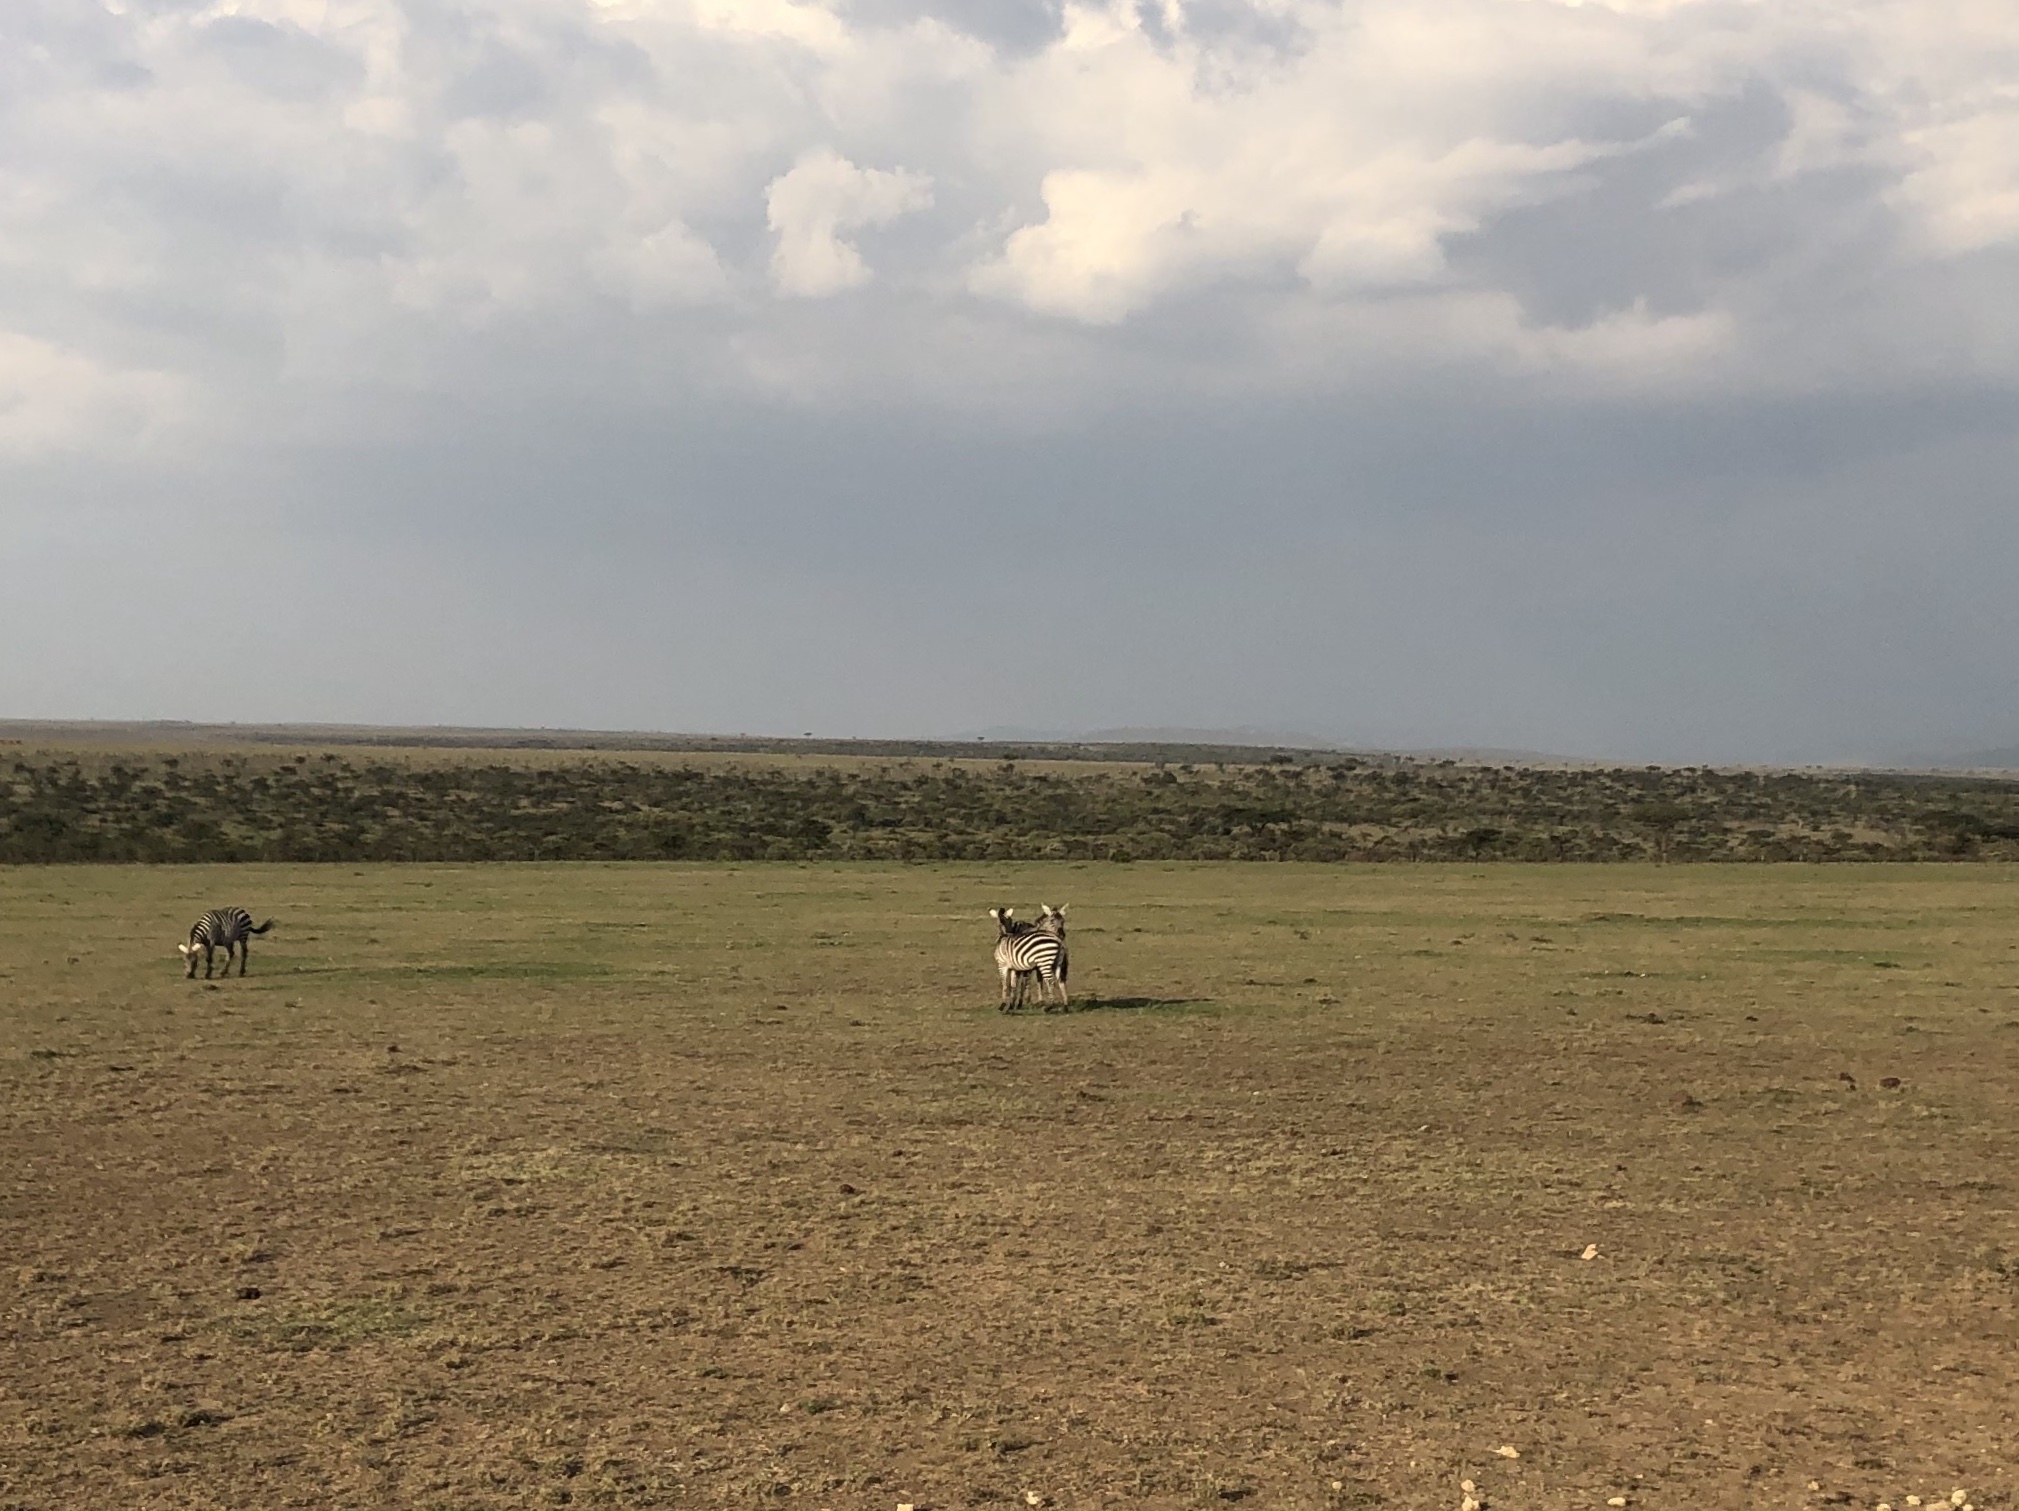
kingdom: Animalia
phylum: Chordata
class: Mammalia
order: Perissodactyla
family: Equidae
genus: Equus
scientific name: Equus quagga
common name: Plains zebra
